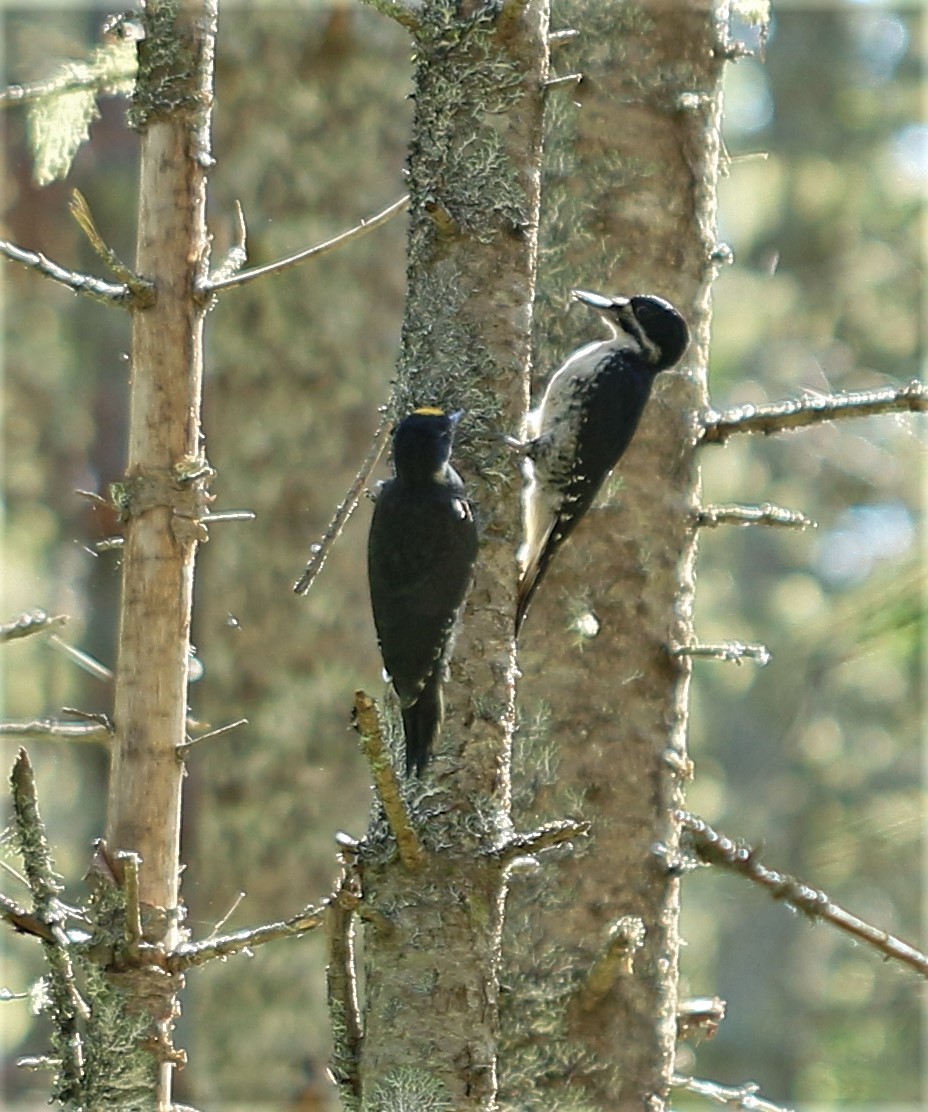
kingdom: Animalia
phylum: Chordata
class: Aves
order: Piciformes
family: Picidae
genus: Picoides
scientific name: Picoides arcticus
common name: Black-backed woodpecker
